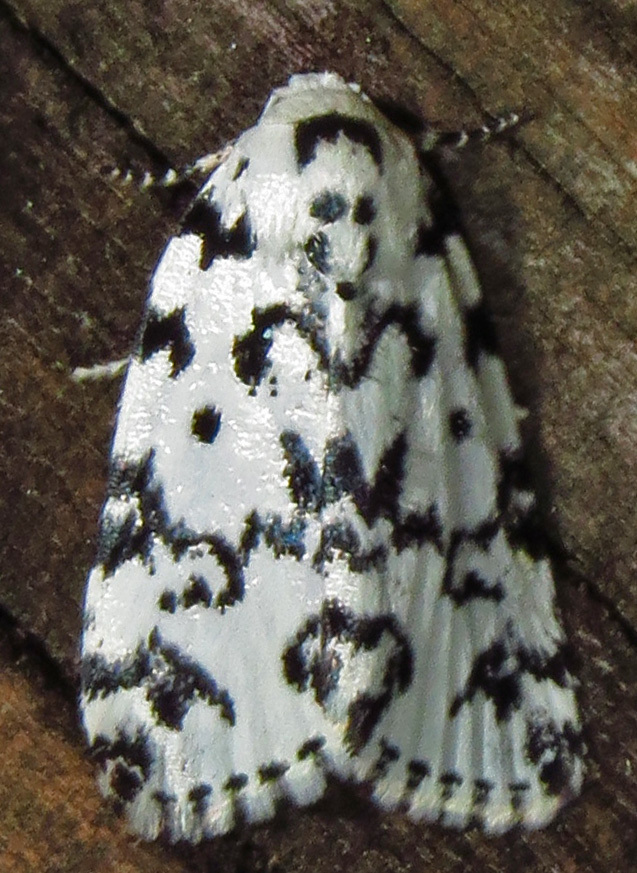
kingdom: Animalia
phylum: Arthropoda
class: Insecta
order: Lepidoptera
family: Noctuidae
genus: Polygrammate
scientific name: Polygrammate hebraeicum
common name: Hebrew moth
